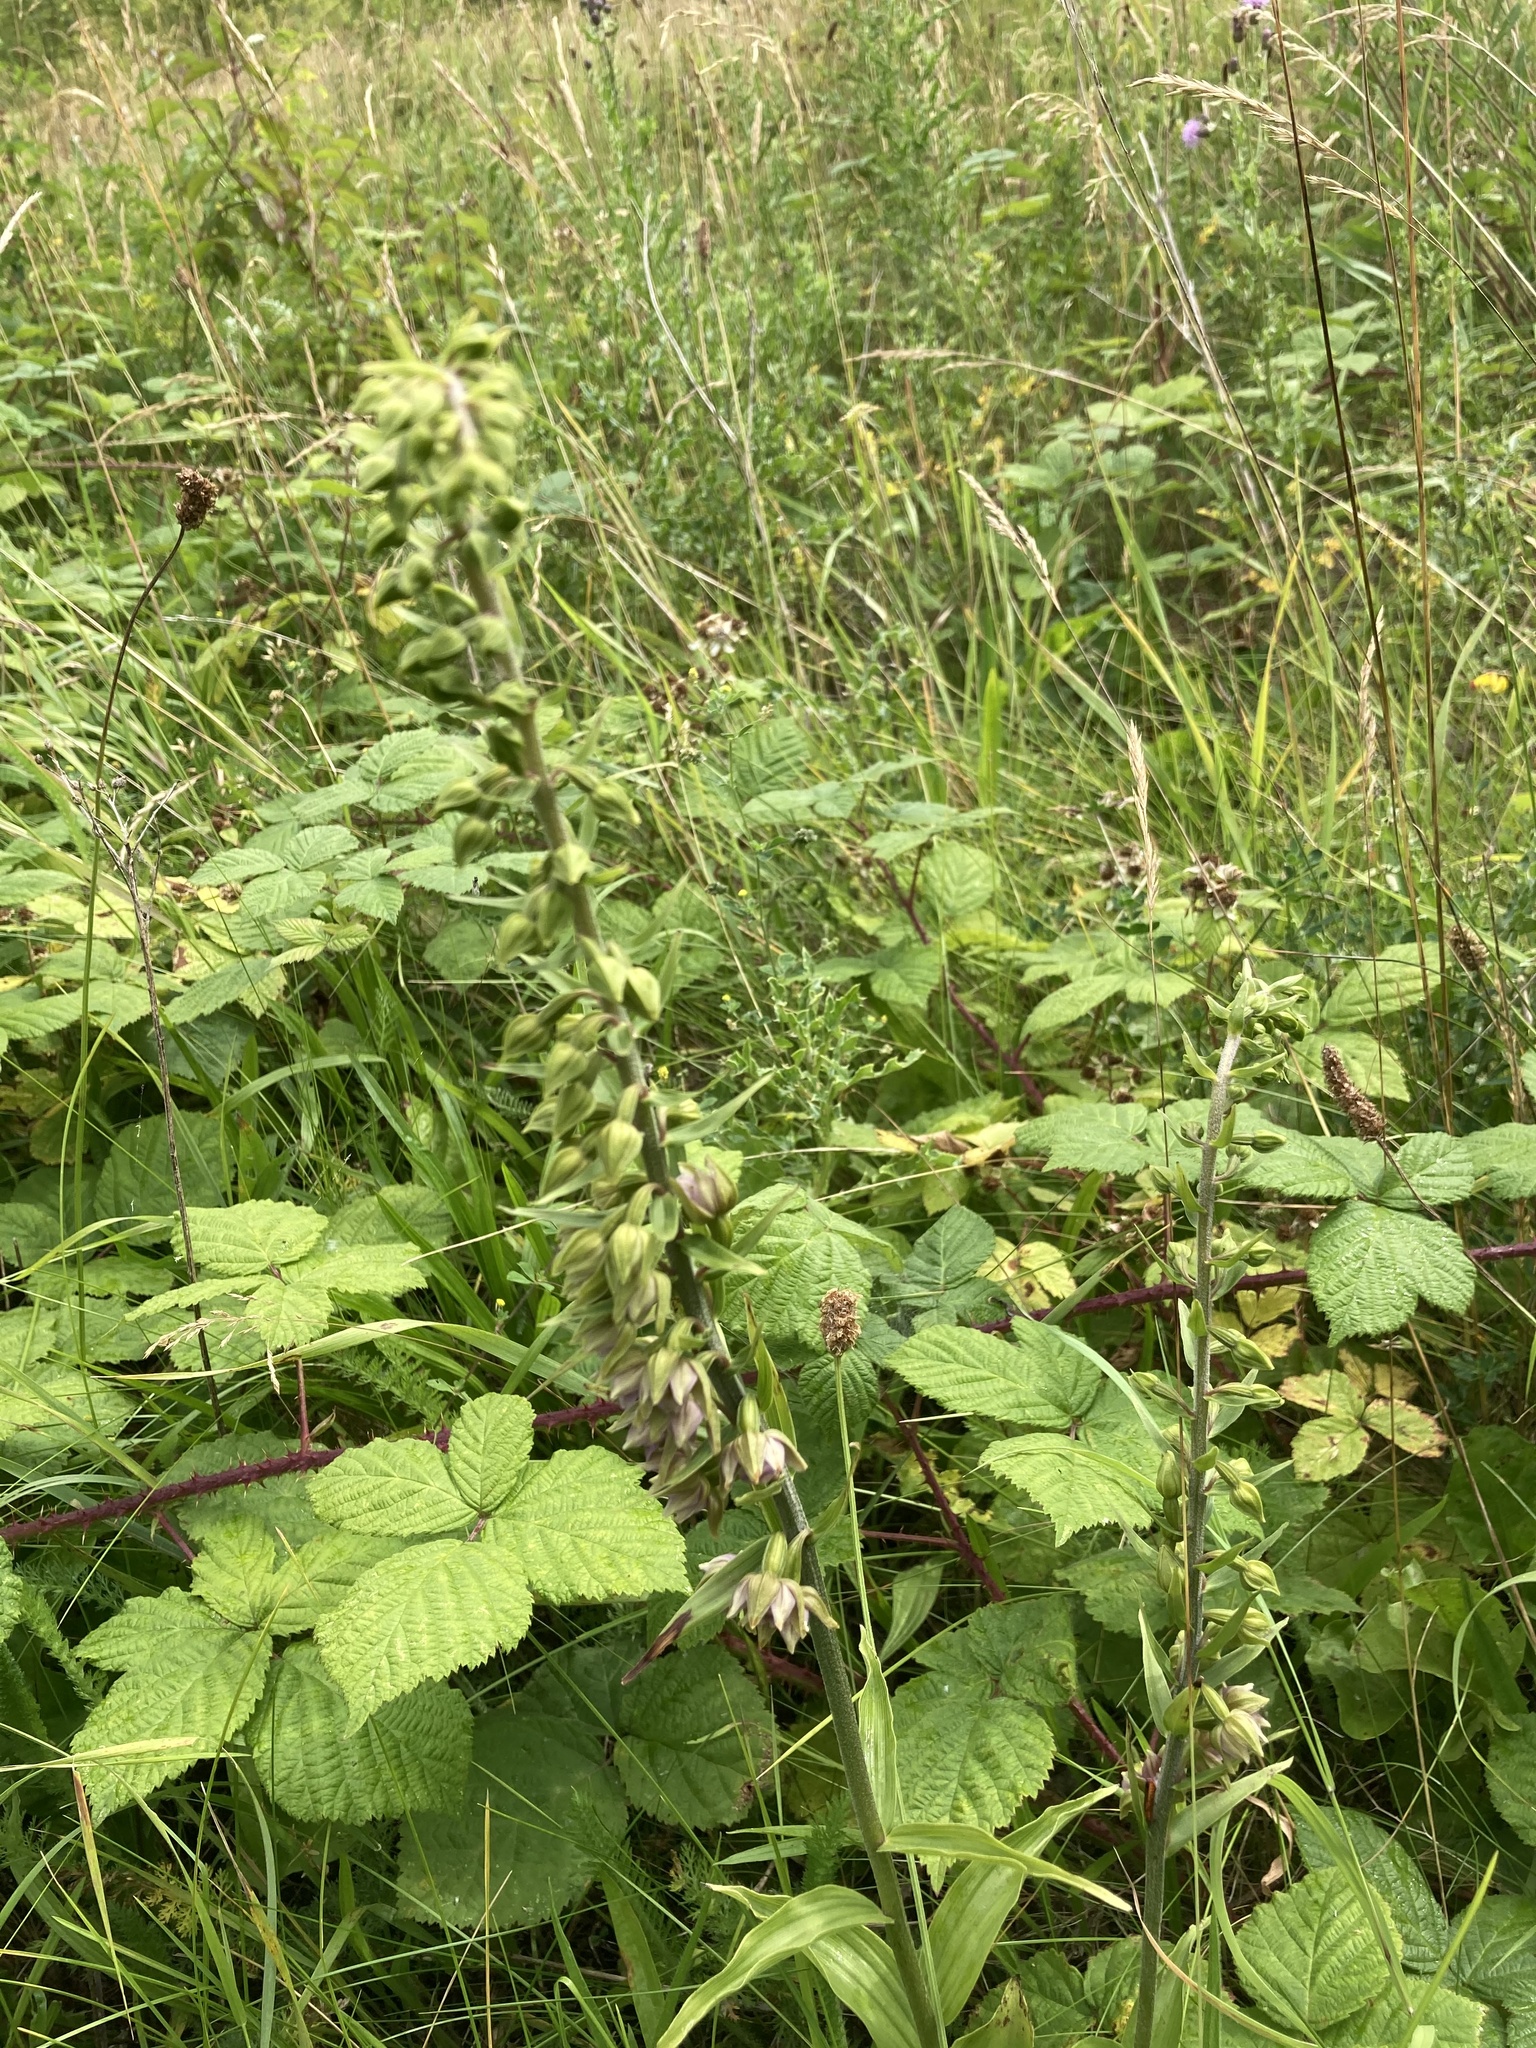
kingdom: Plantae
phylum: Tracheophyta
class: Liliopsida
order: Asparagales
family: Orchidaceae
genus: Epipactis
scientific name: Epipactis helleborine
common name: Broad-leaved helleborine
